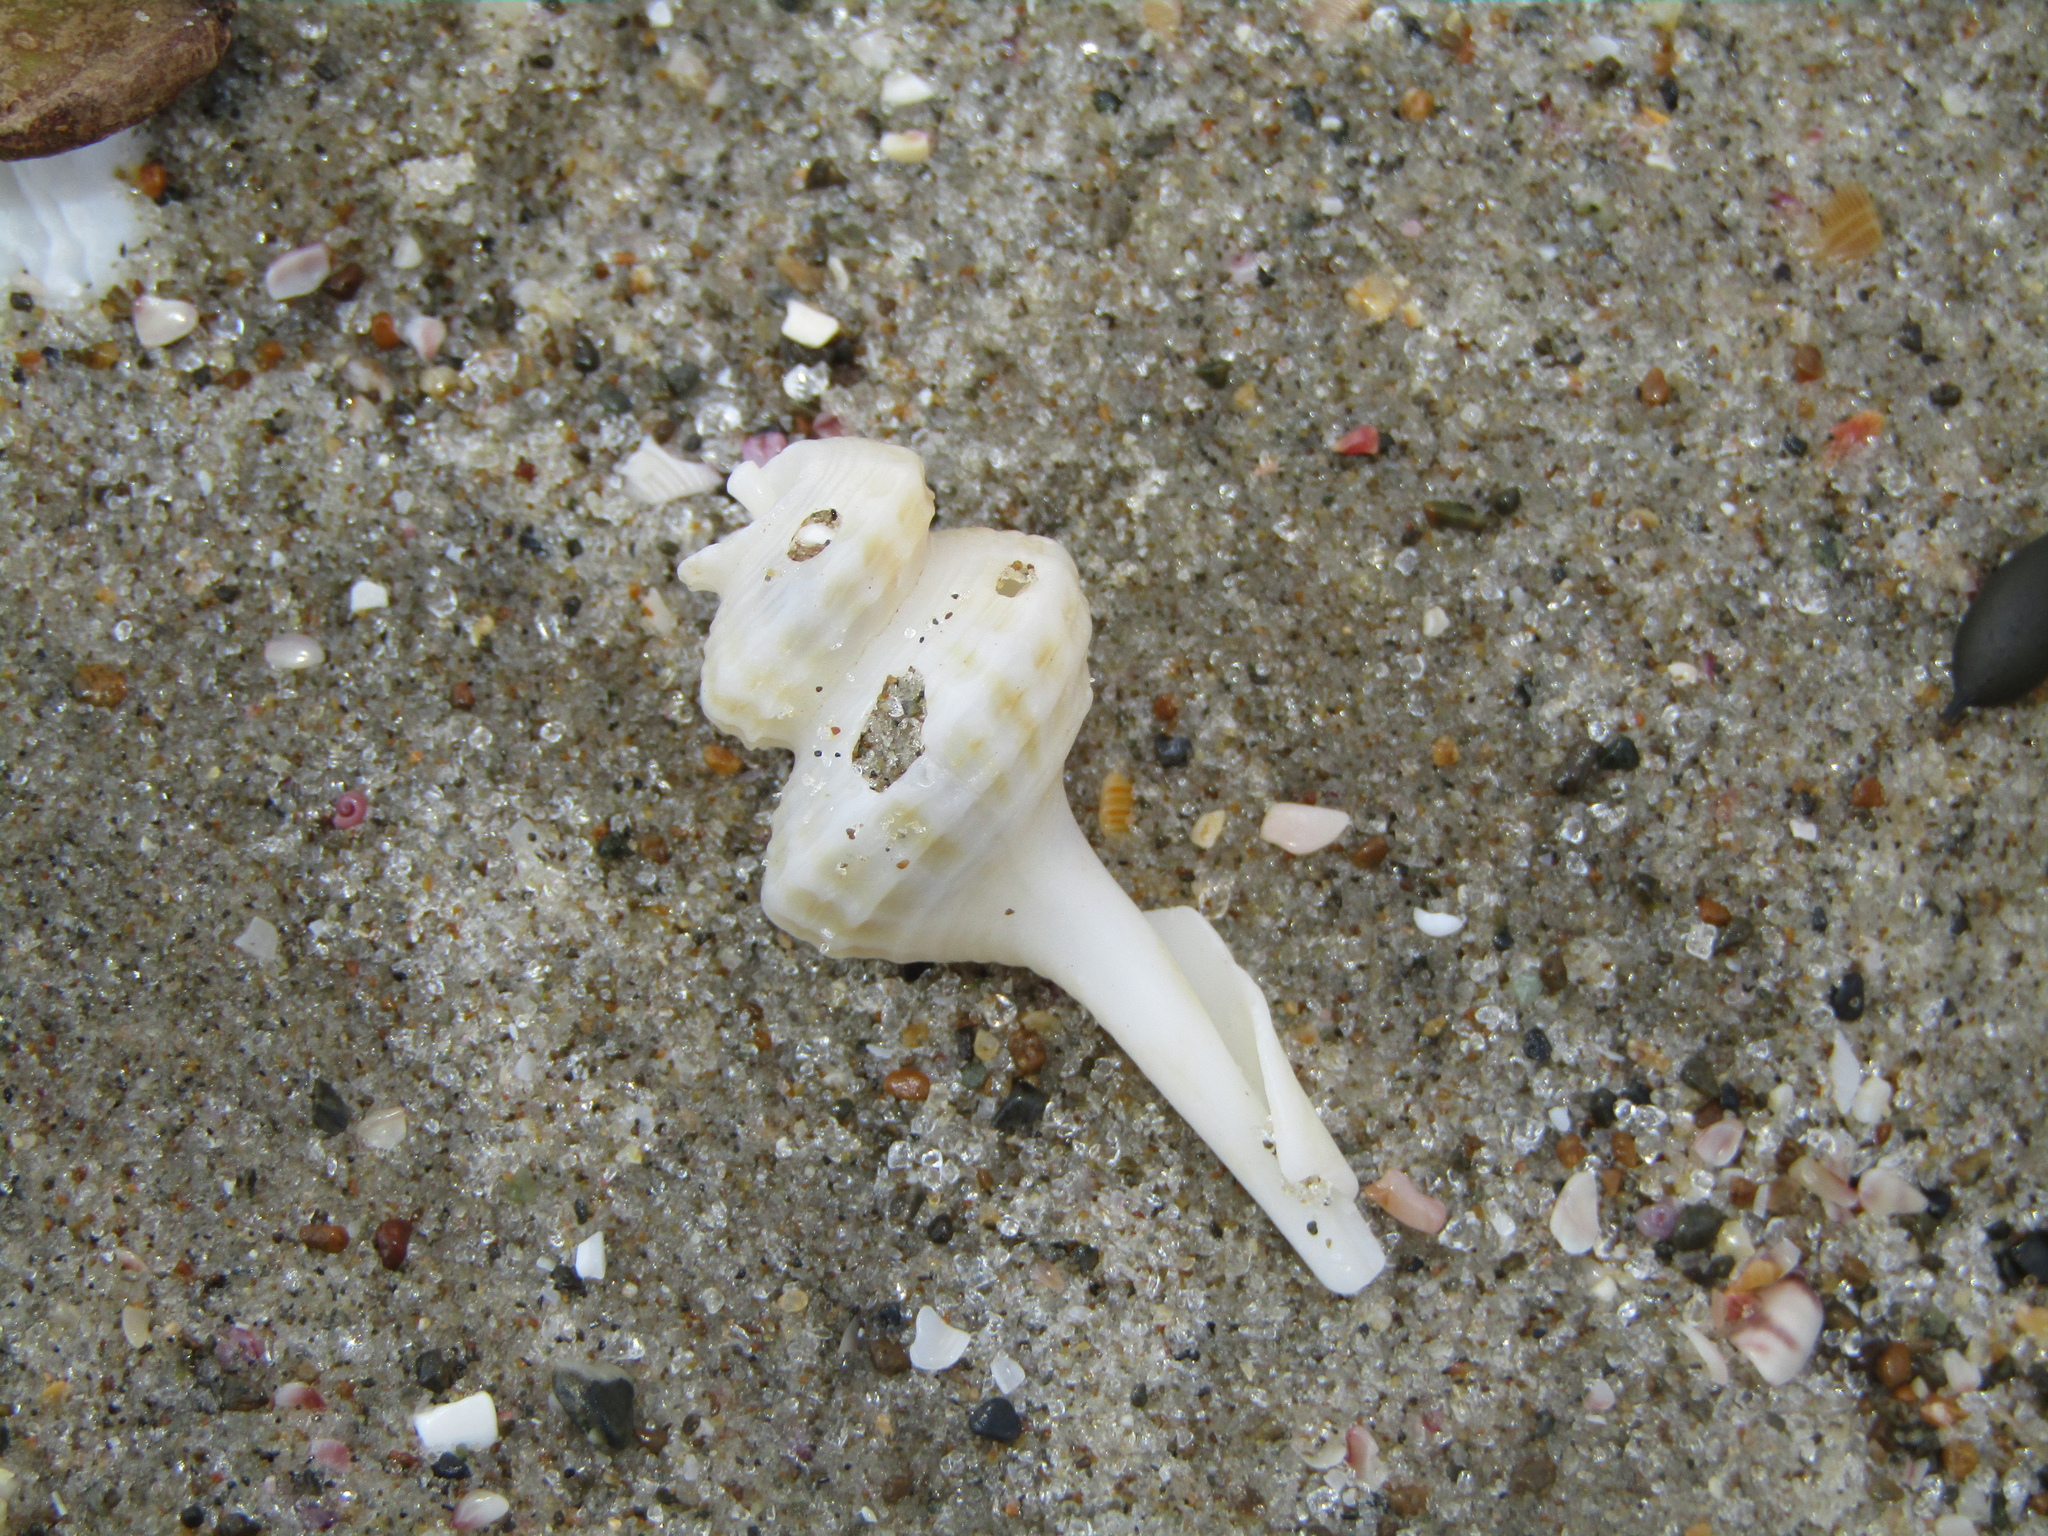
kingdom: Animalia
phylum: Mollusca
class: Gastropoda
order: Neogastropoda
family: Columbariidae
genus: Coluzea
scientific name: Coluzea spiralis
